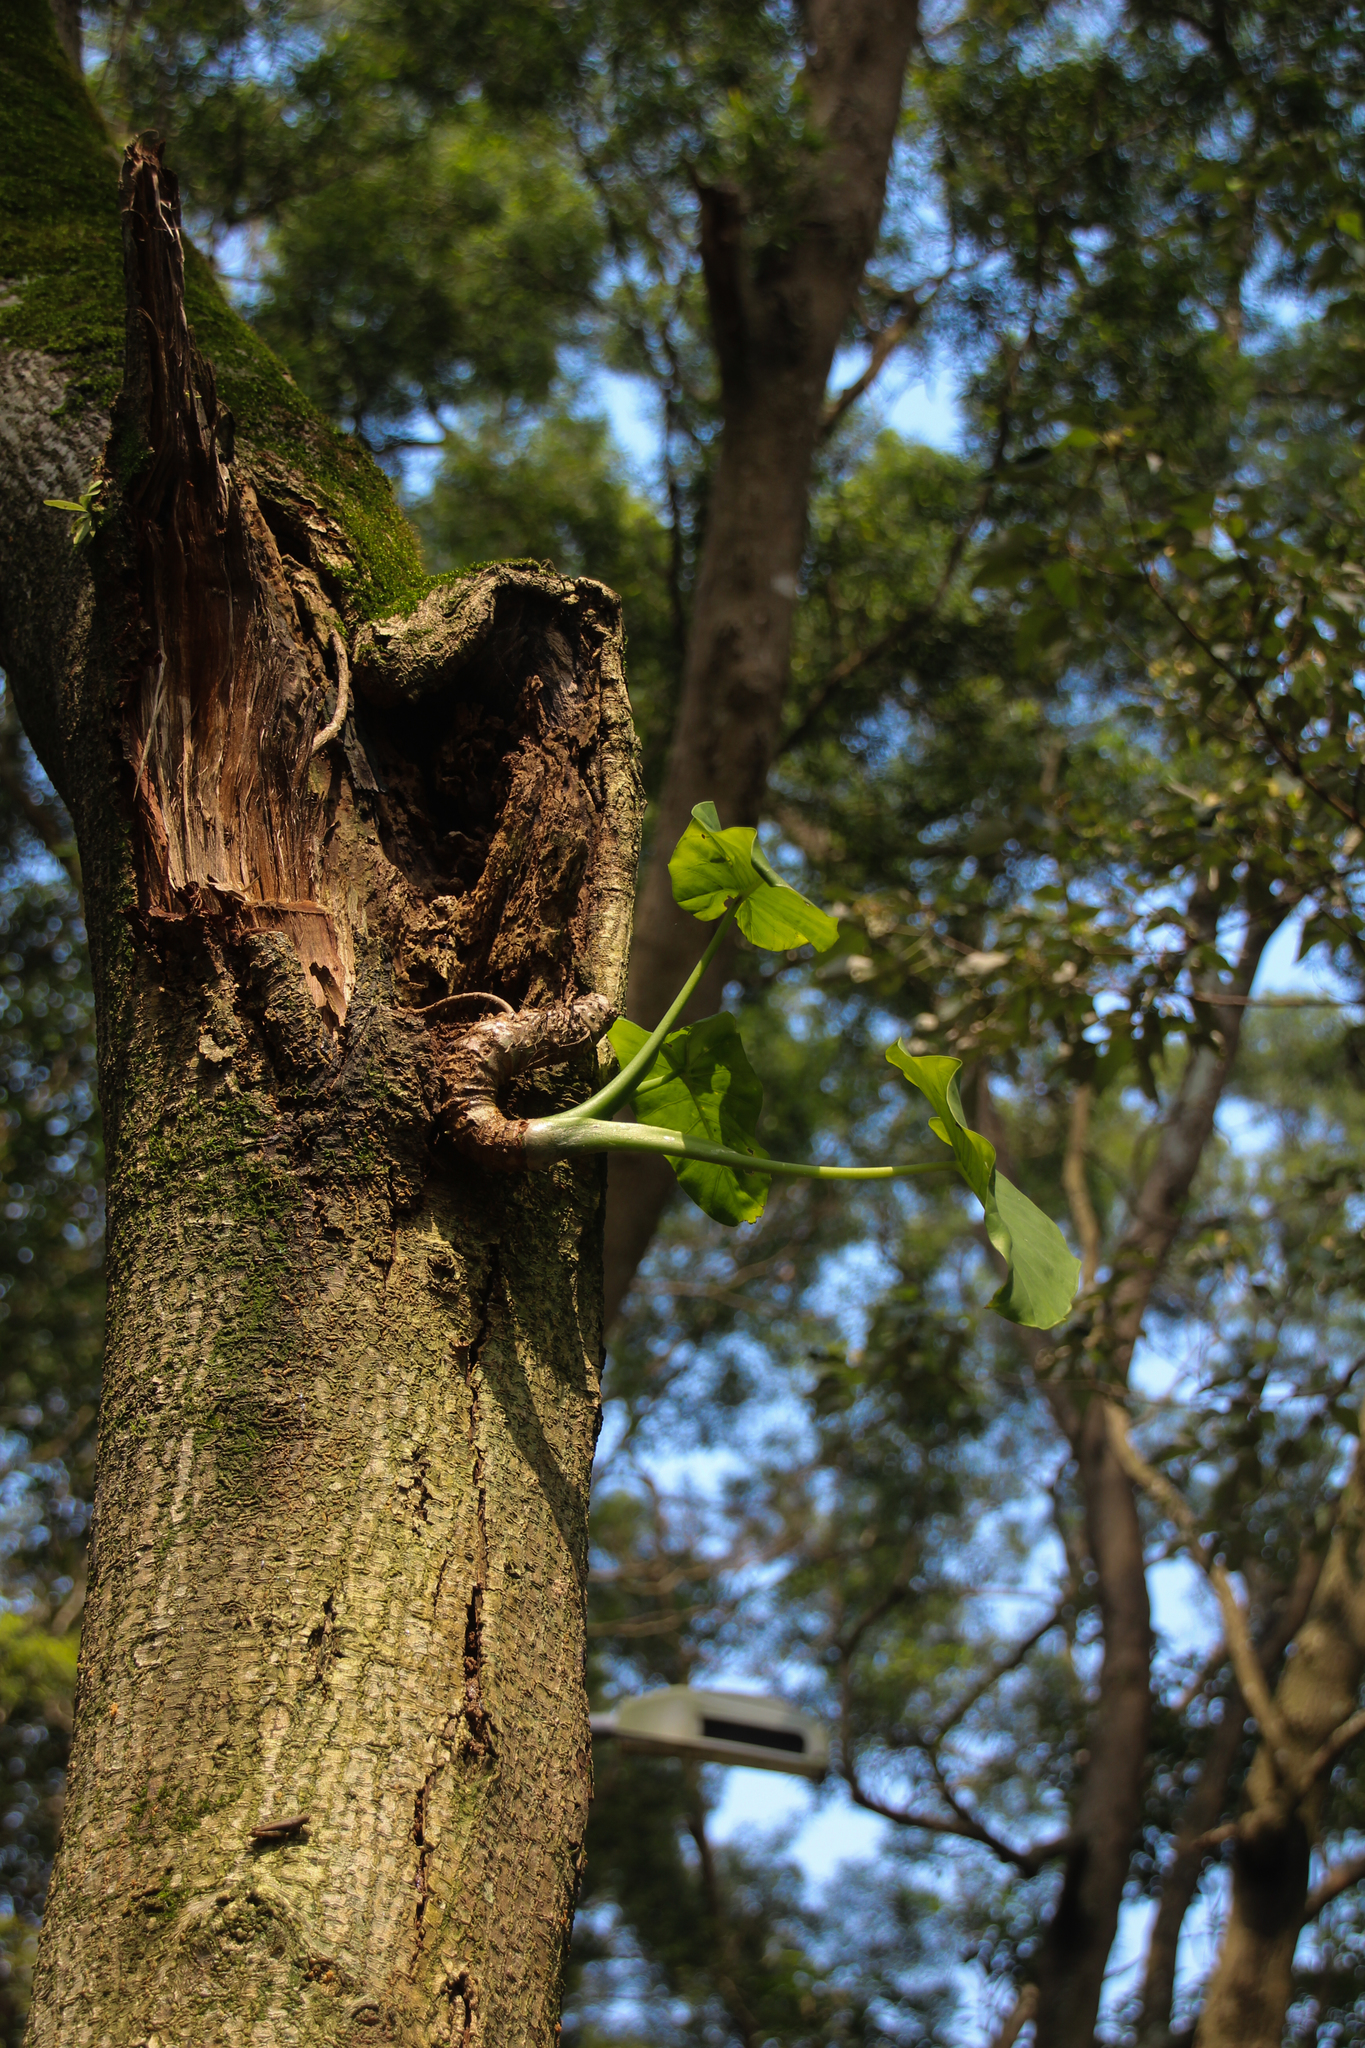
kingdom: Plantae
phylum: Tracheophyta
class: Liliopsida
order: Alismatales
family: Araceae
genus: Alocasia
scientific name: Alocasia odora
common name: Asian taro
